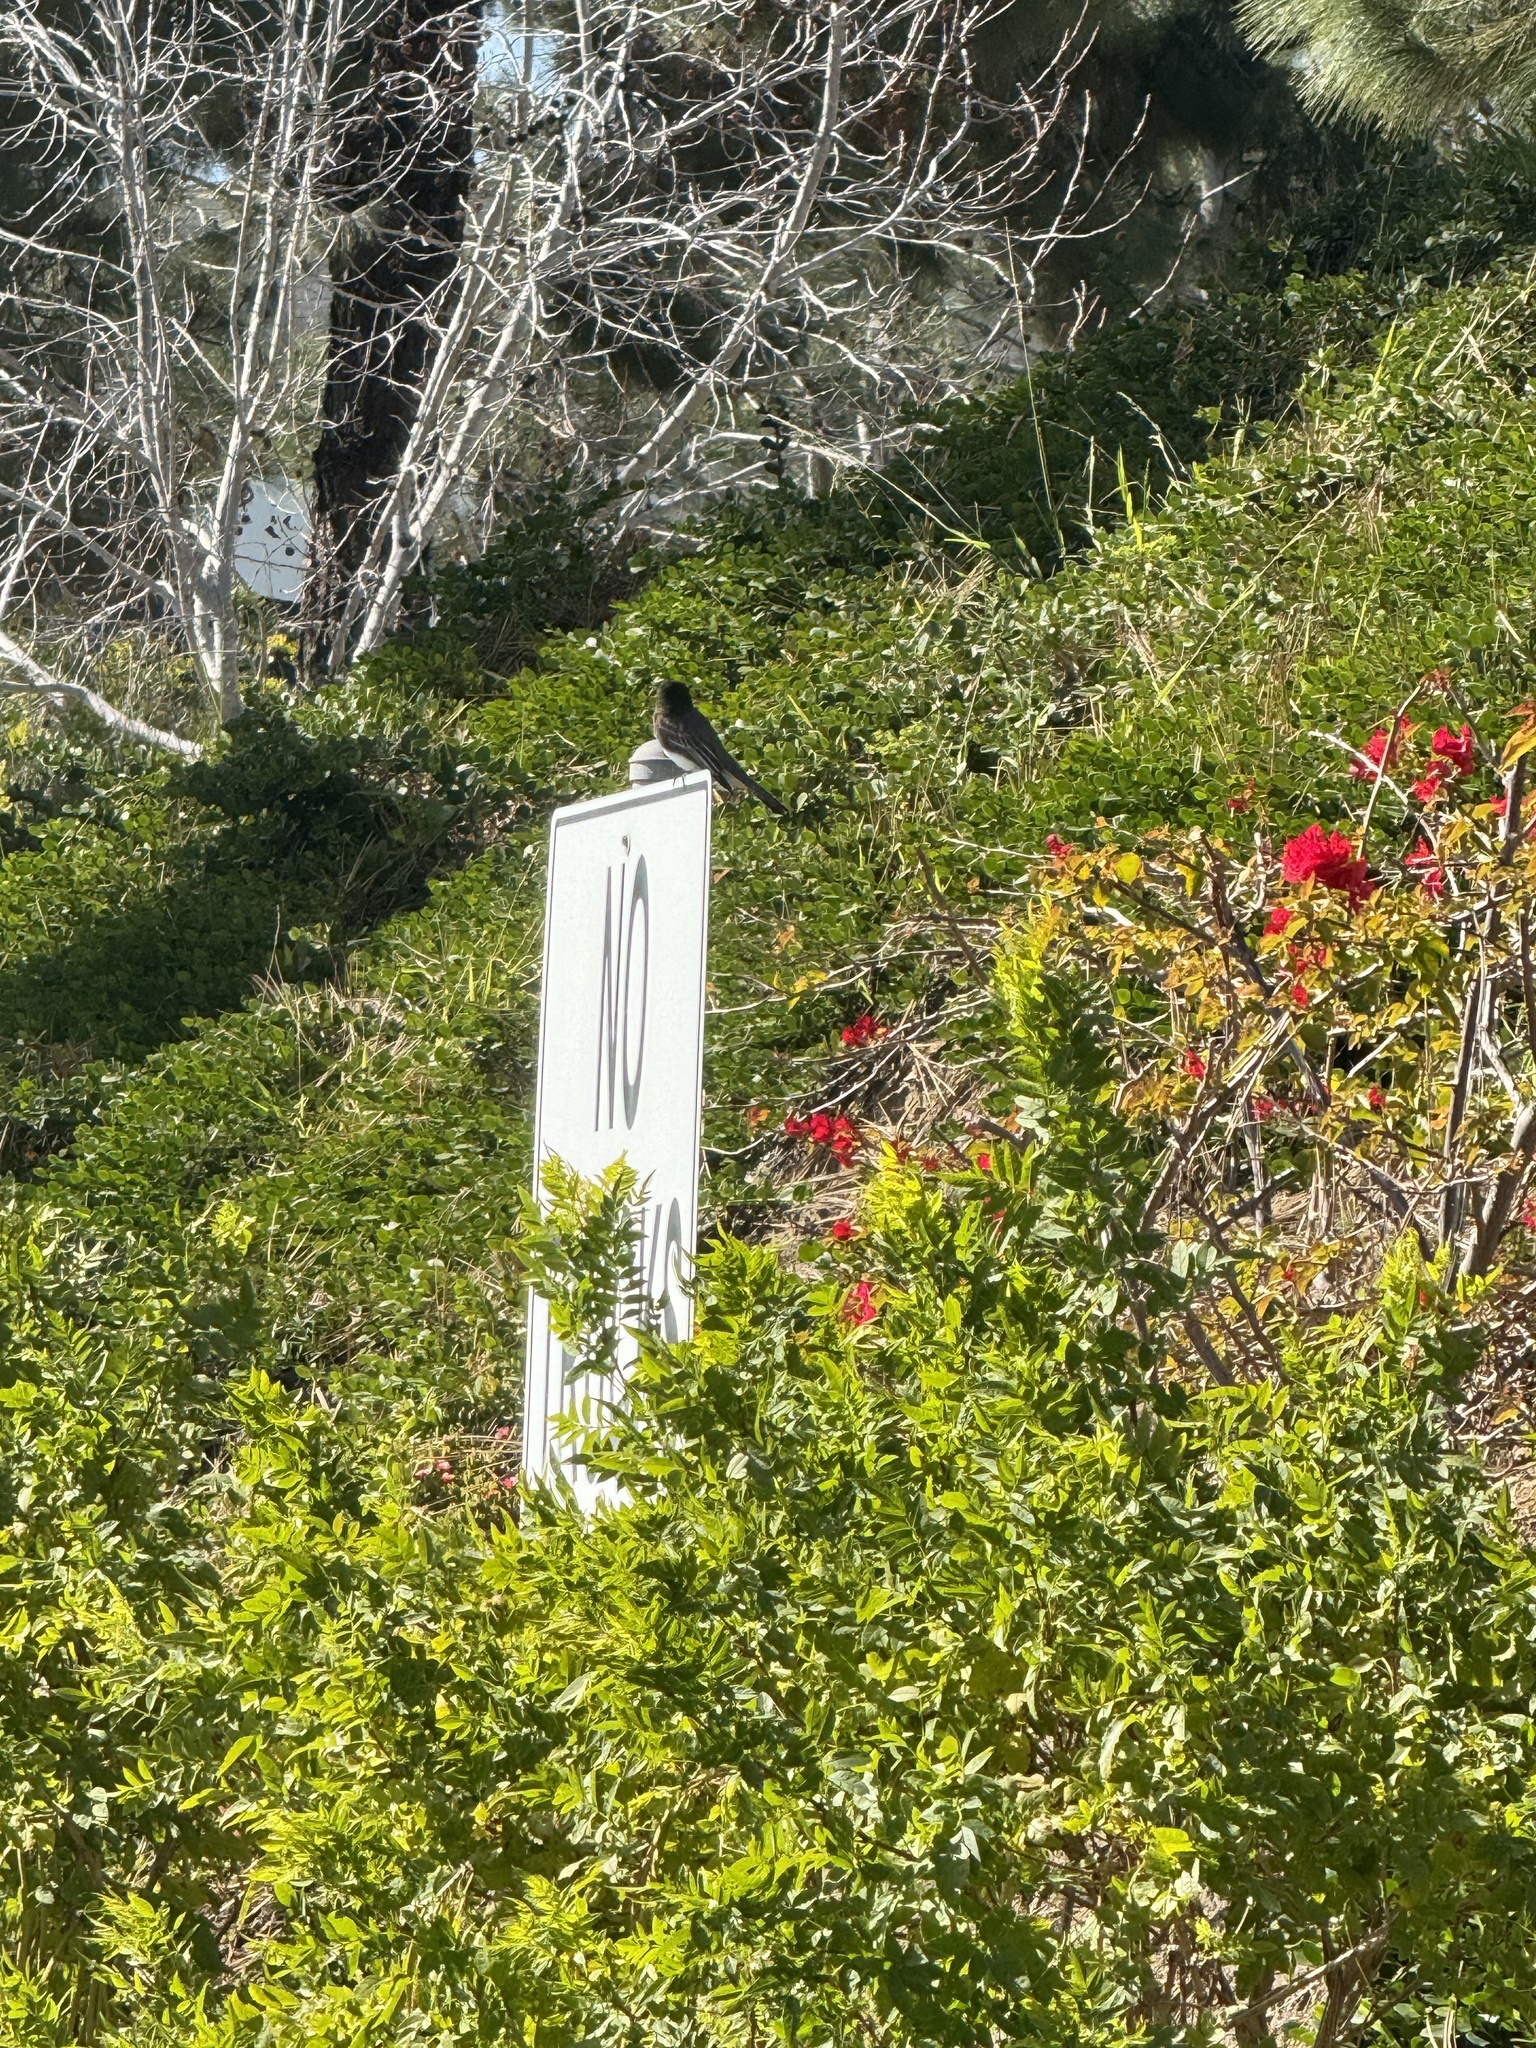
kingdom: Animalia
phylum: Chordata
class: Aves
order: Passeriformes
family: Tyrannidae
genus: Sayornis
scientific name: Sayornis nigricans
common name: Black phoebe
